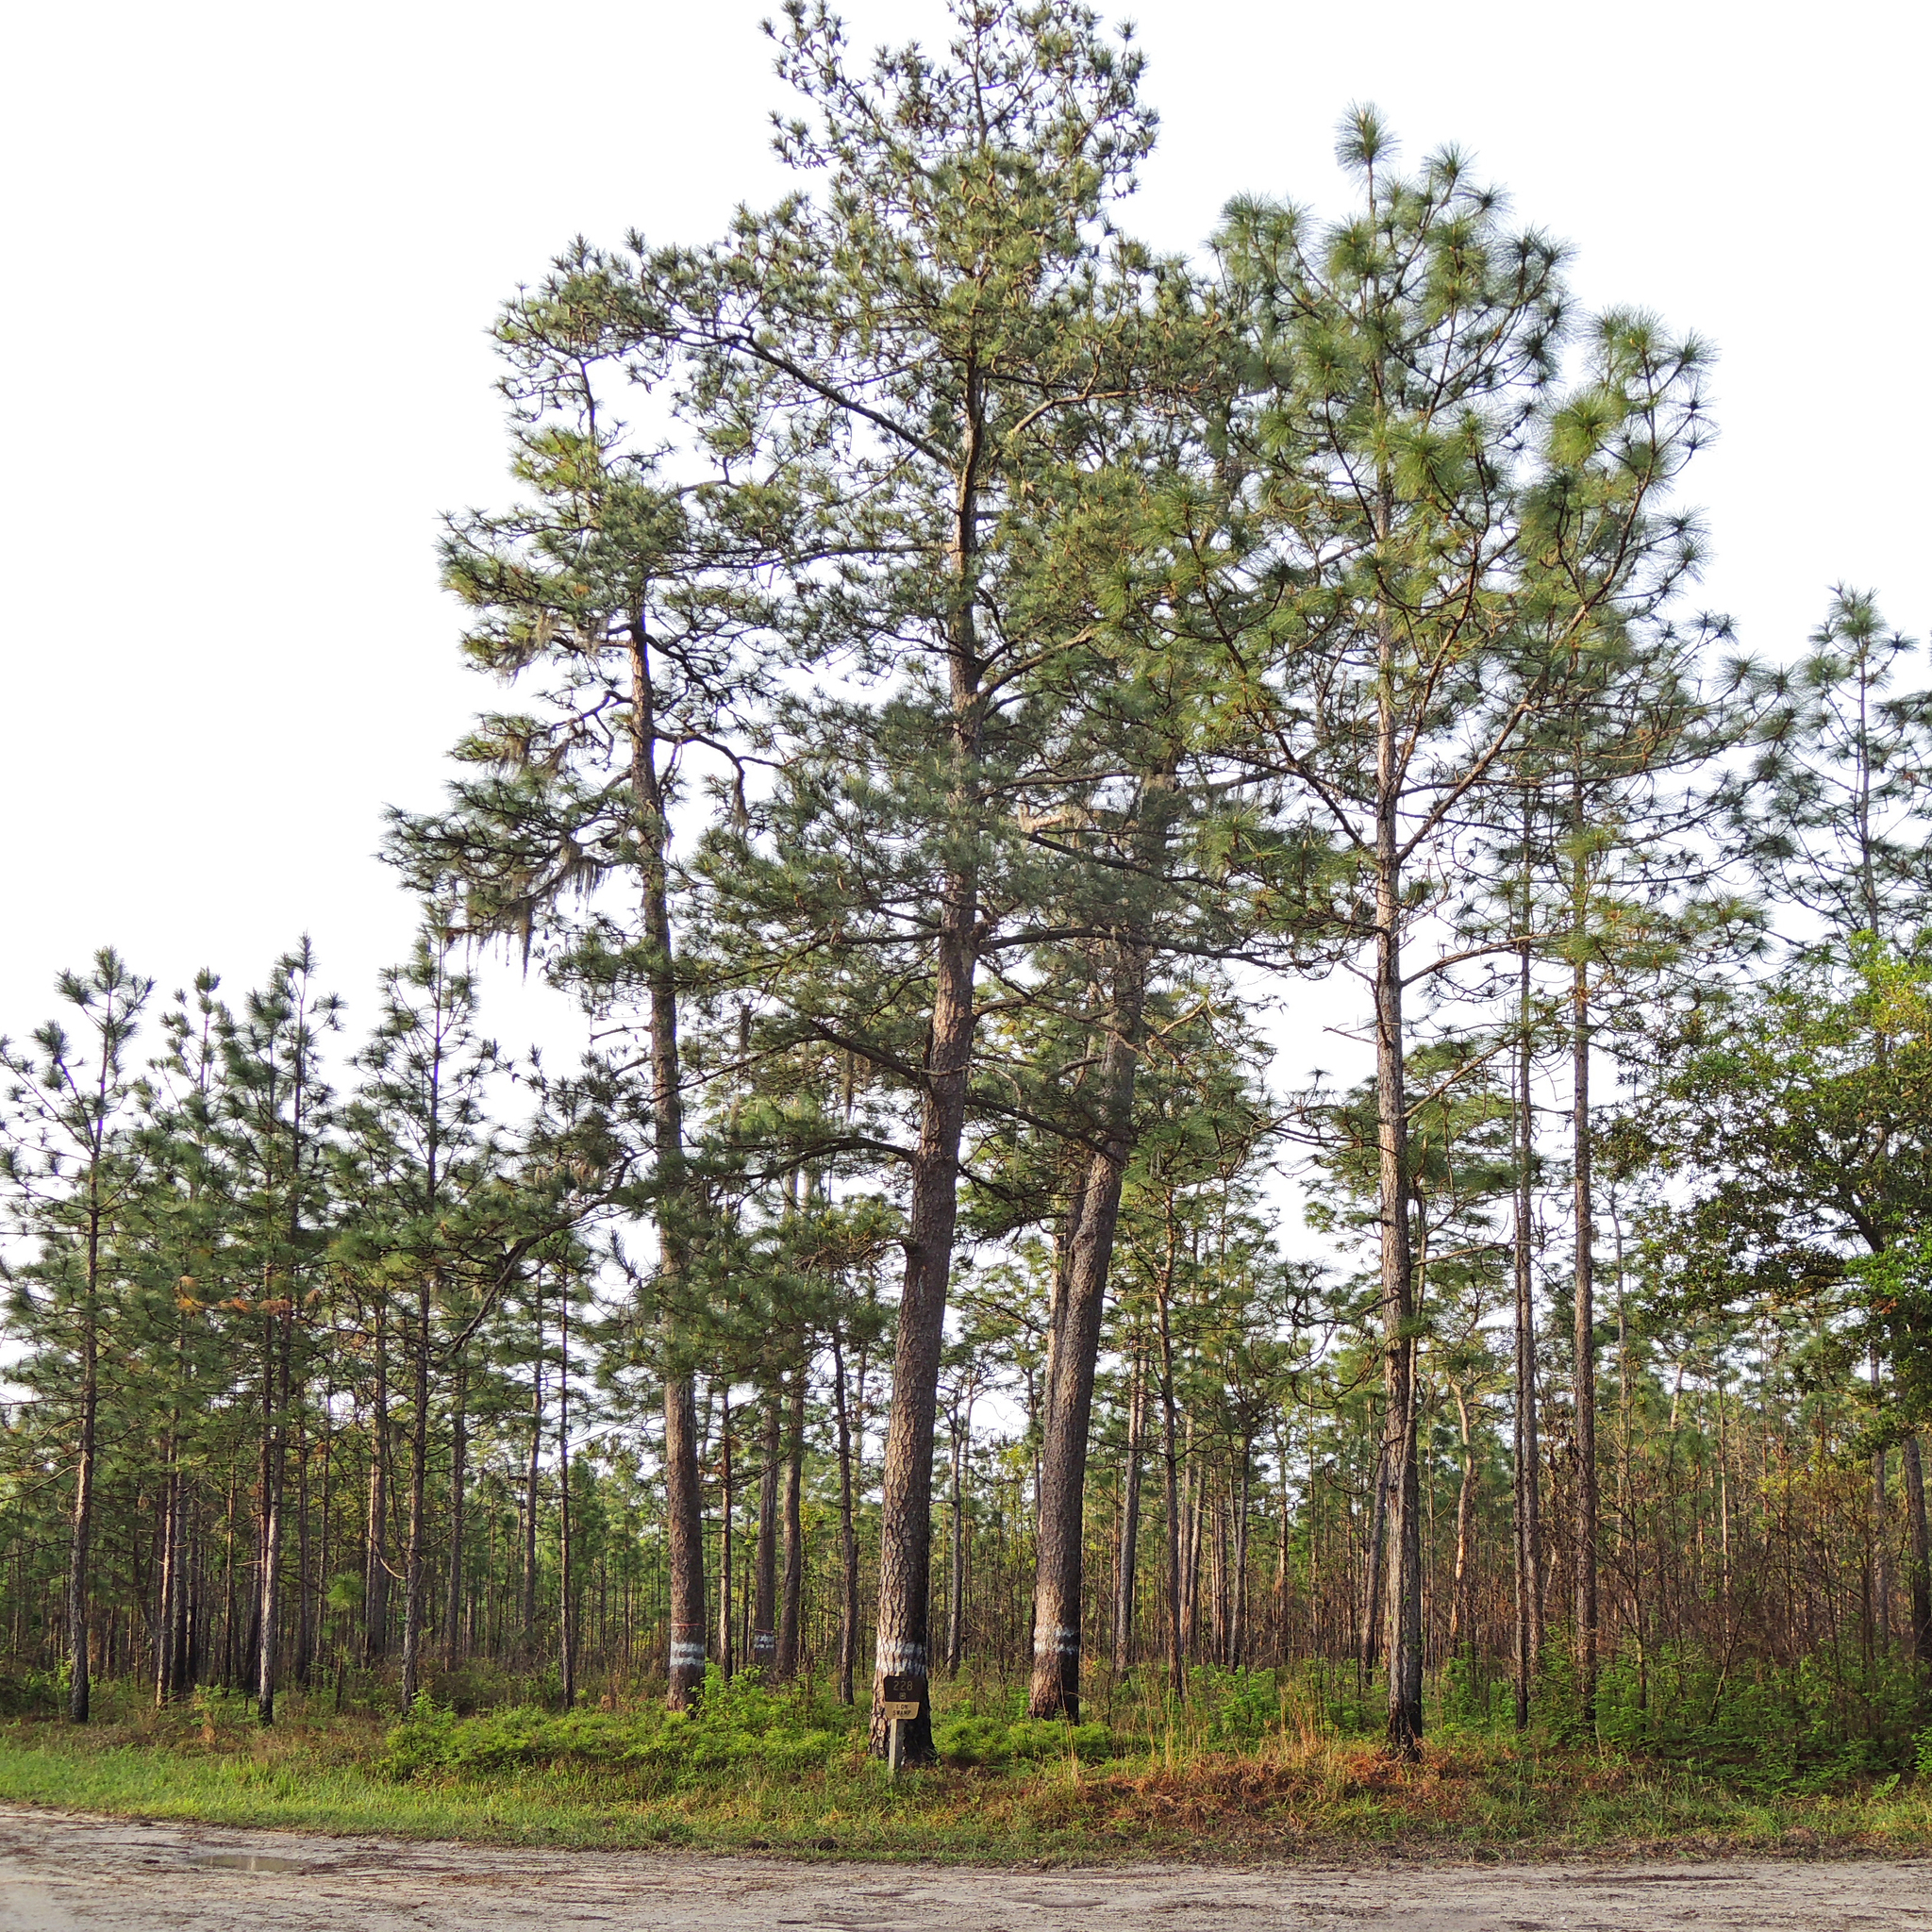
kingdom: Plantae
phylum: Tracheophyta
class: Pinopsida
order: Pinales
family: Pinaceae
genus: Pinus
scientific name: Pinus palustris
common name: Longleaf pine
